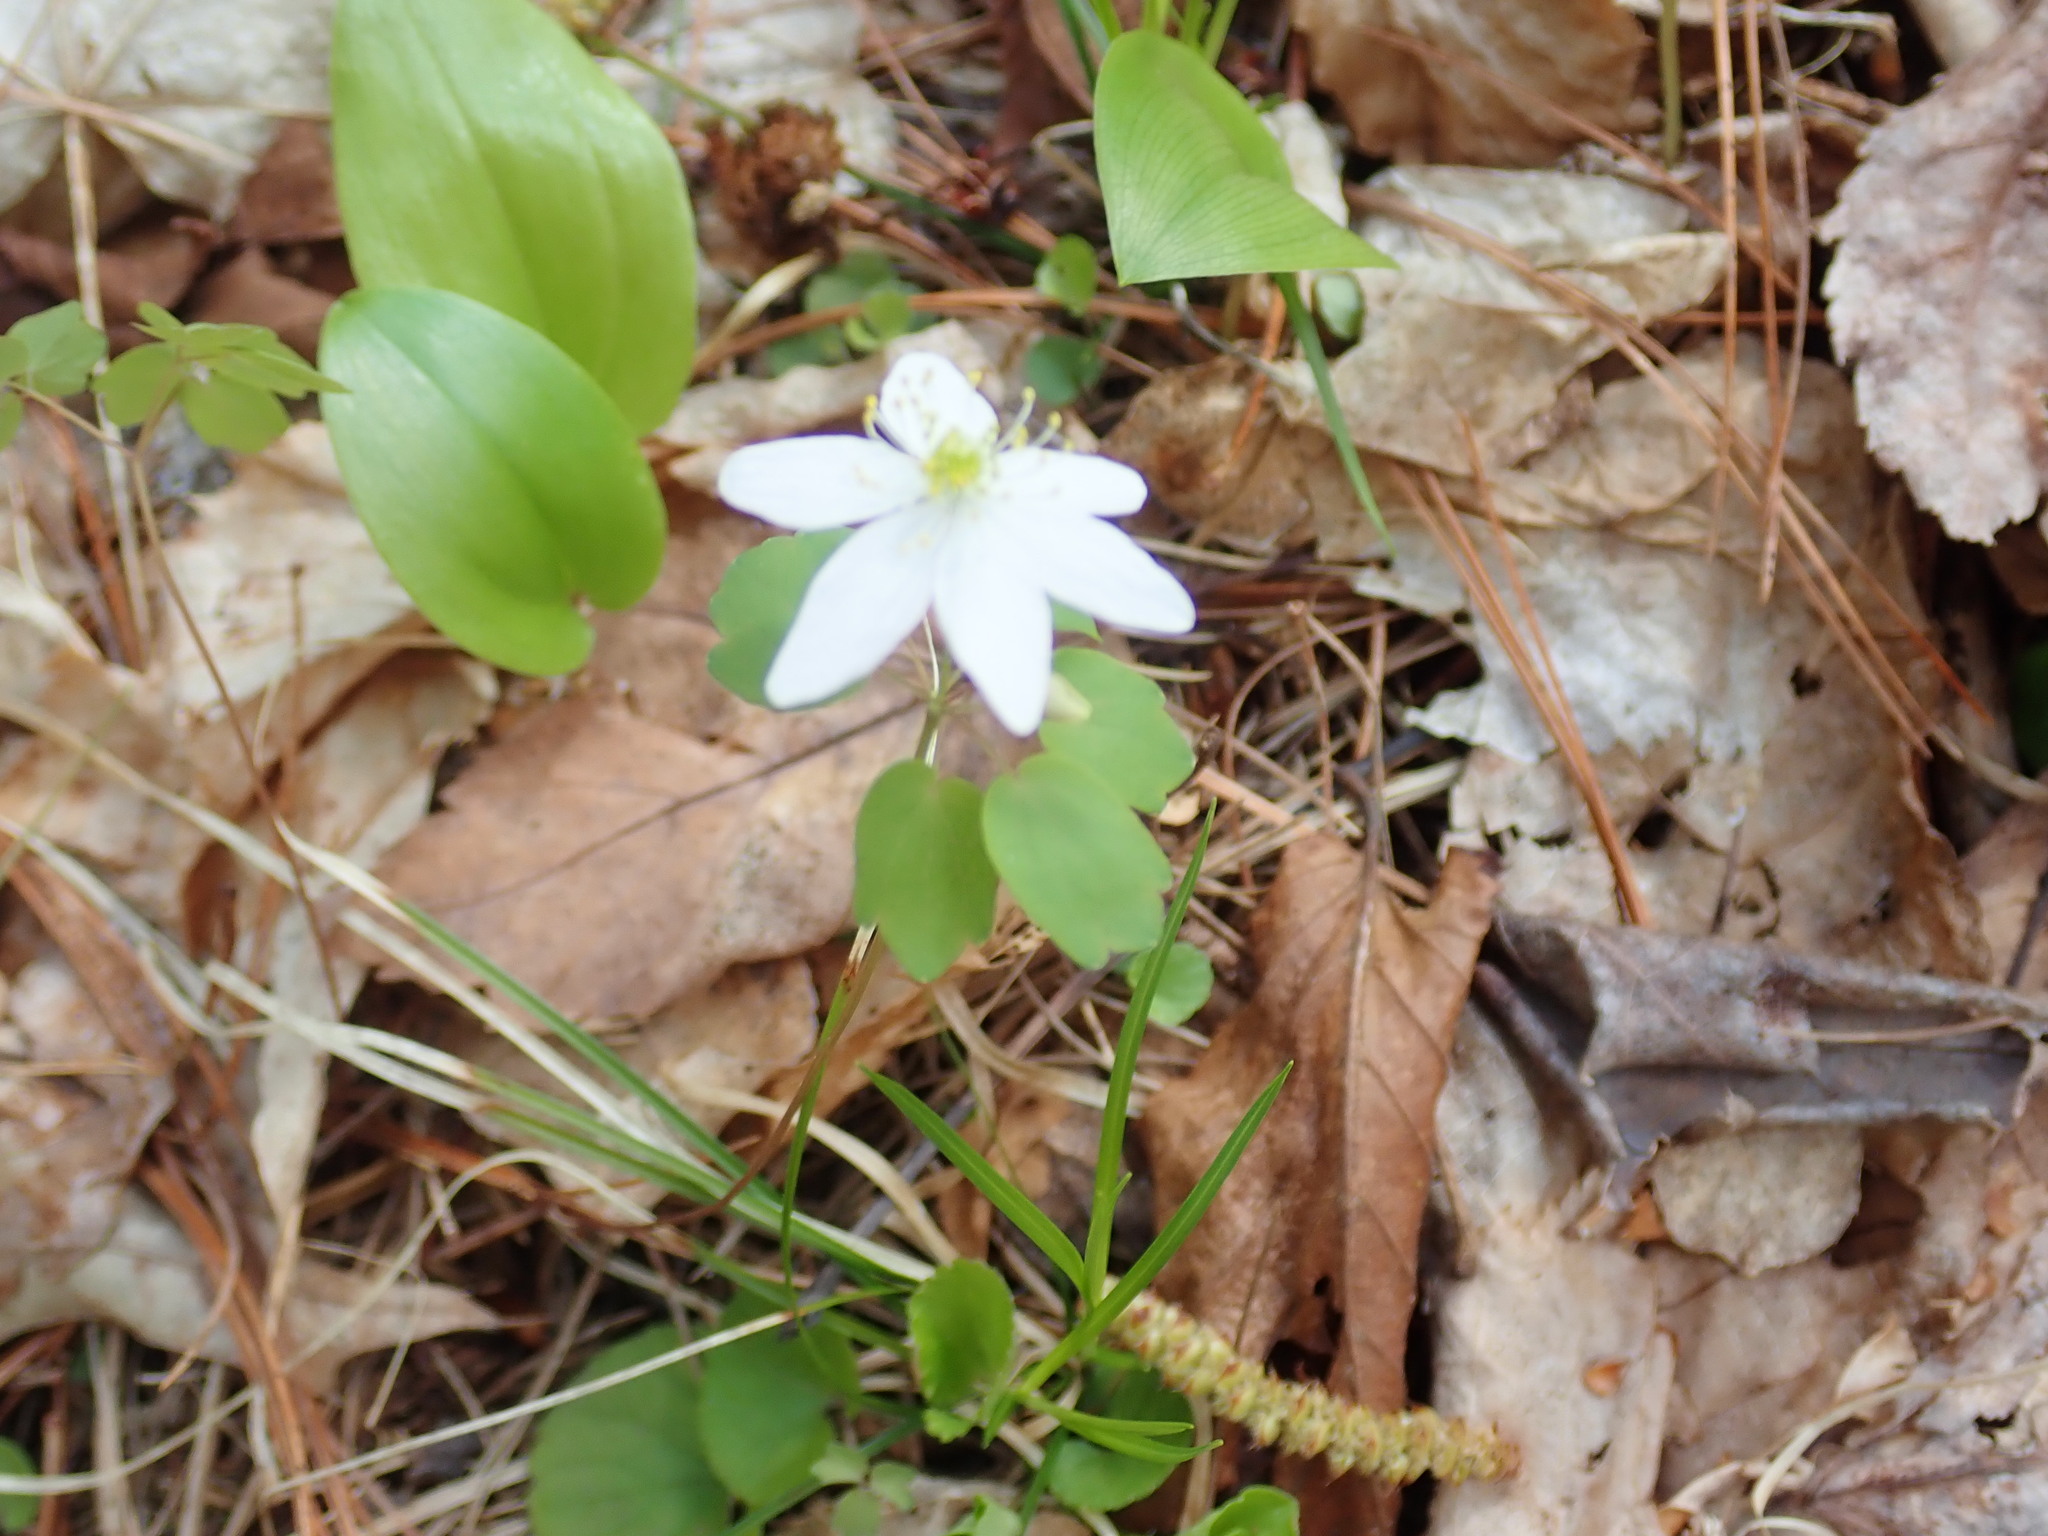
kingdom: Plantae
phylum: Tracheophyta
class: Magnoliopsida
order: Ranunculales
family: Ranunculaceae
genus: Thalictrum
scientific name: Thalictrum thalictroides
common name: Rue-anemone
